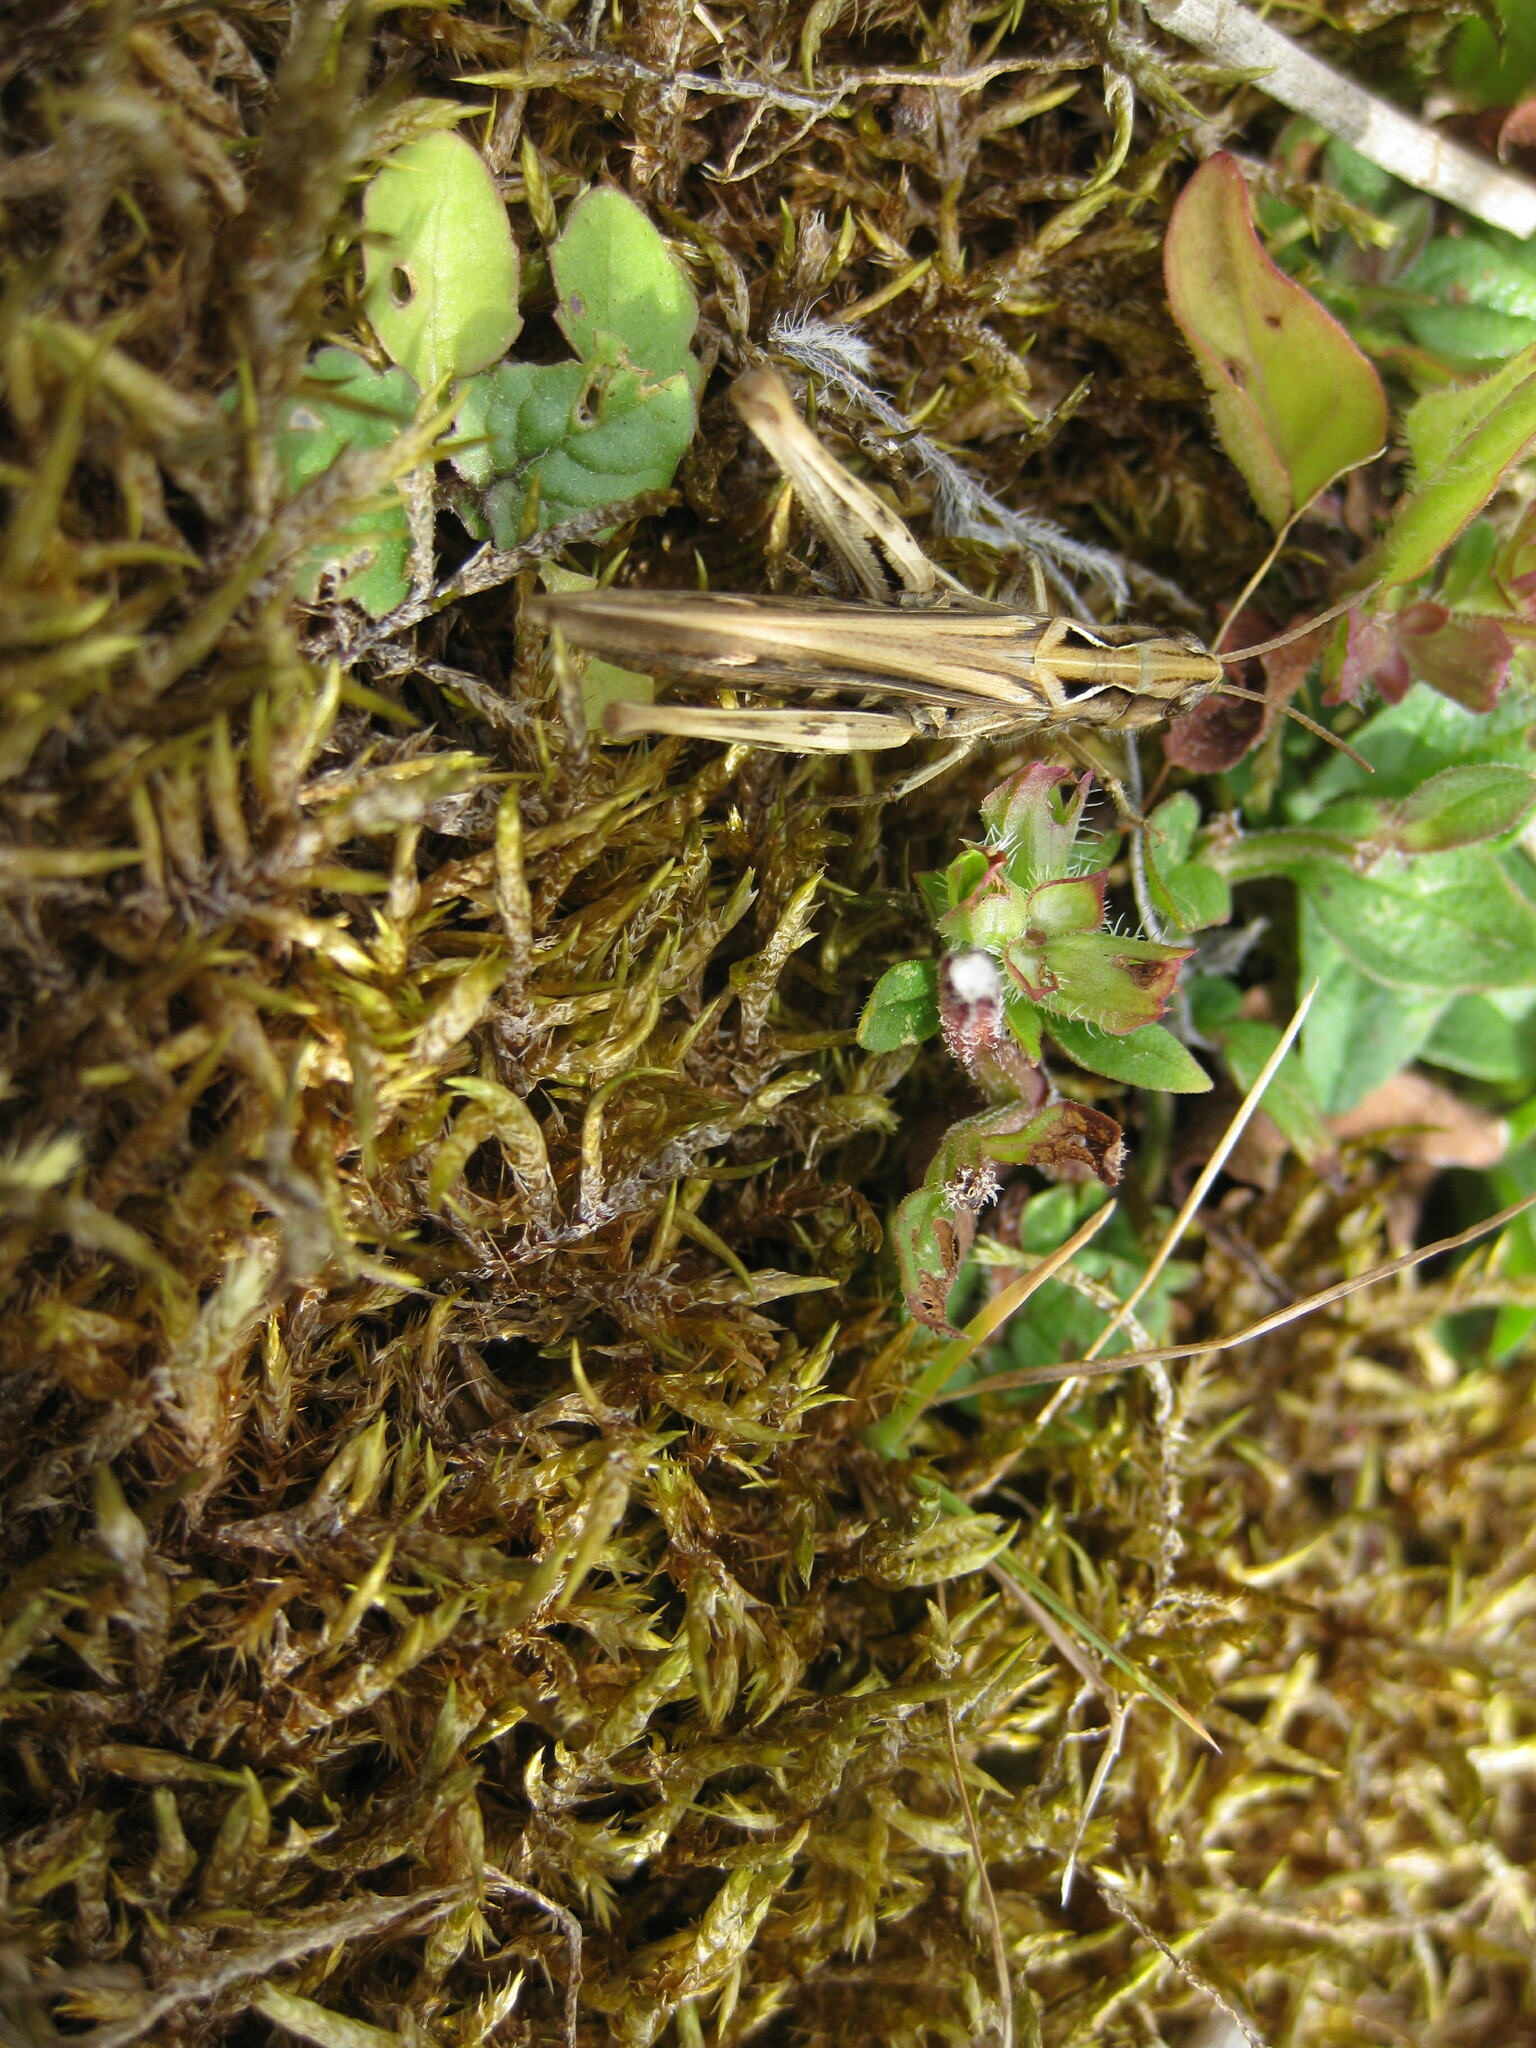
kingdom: Animalia
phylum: Arthropoda
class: Insecta
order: Orthoptera
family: Acrididae
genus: Chorthippus
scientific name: Chorthippus brunneus
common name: Field grasshopper
